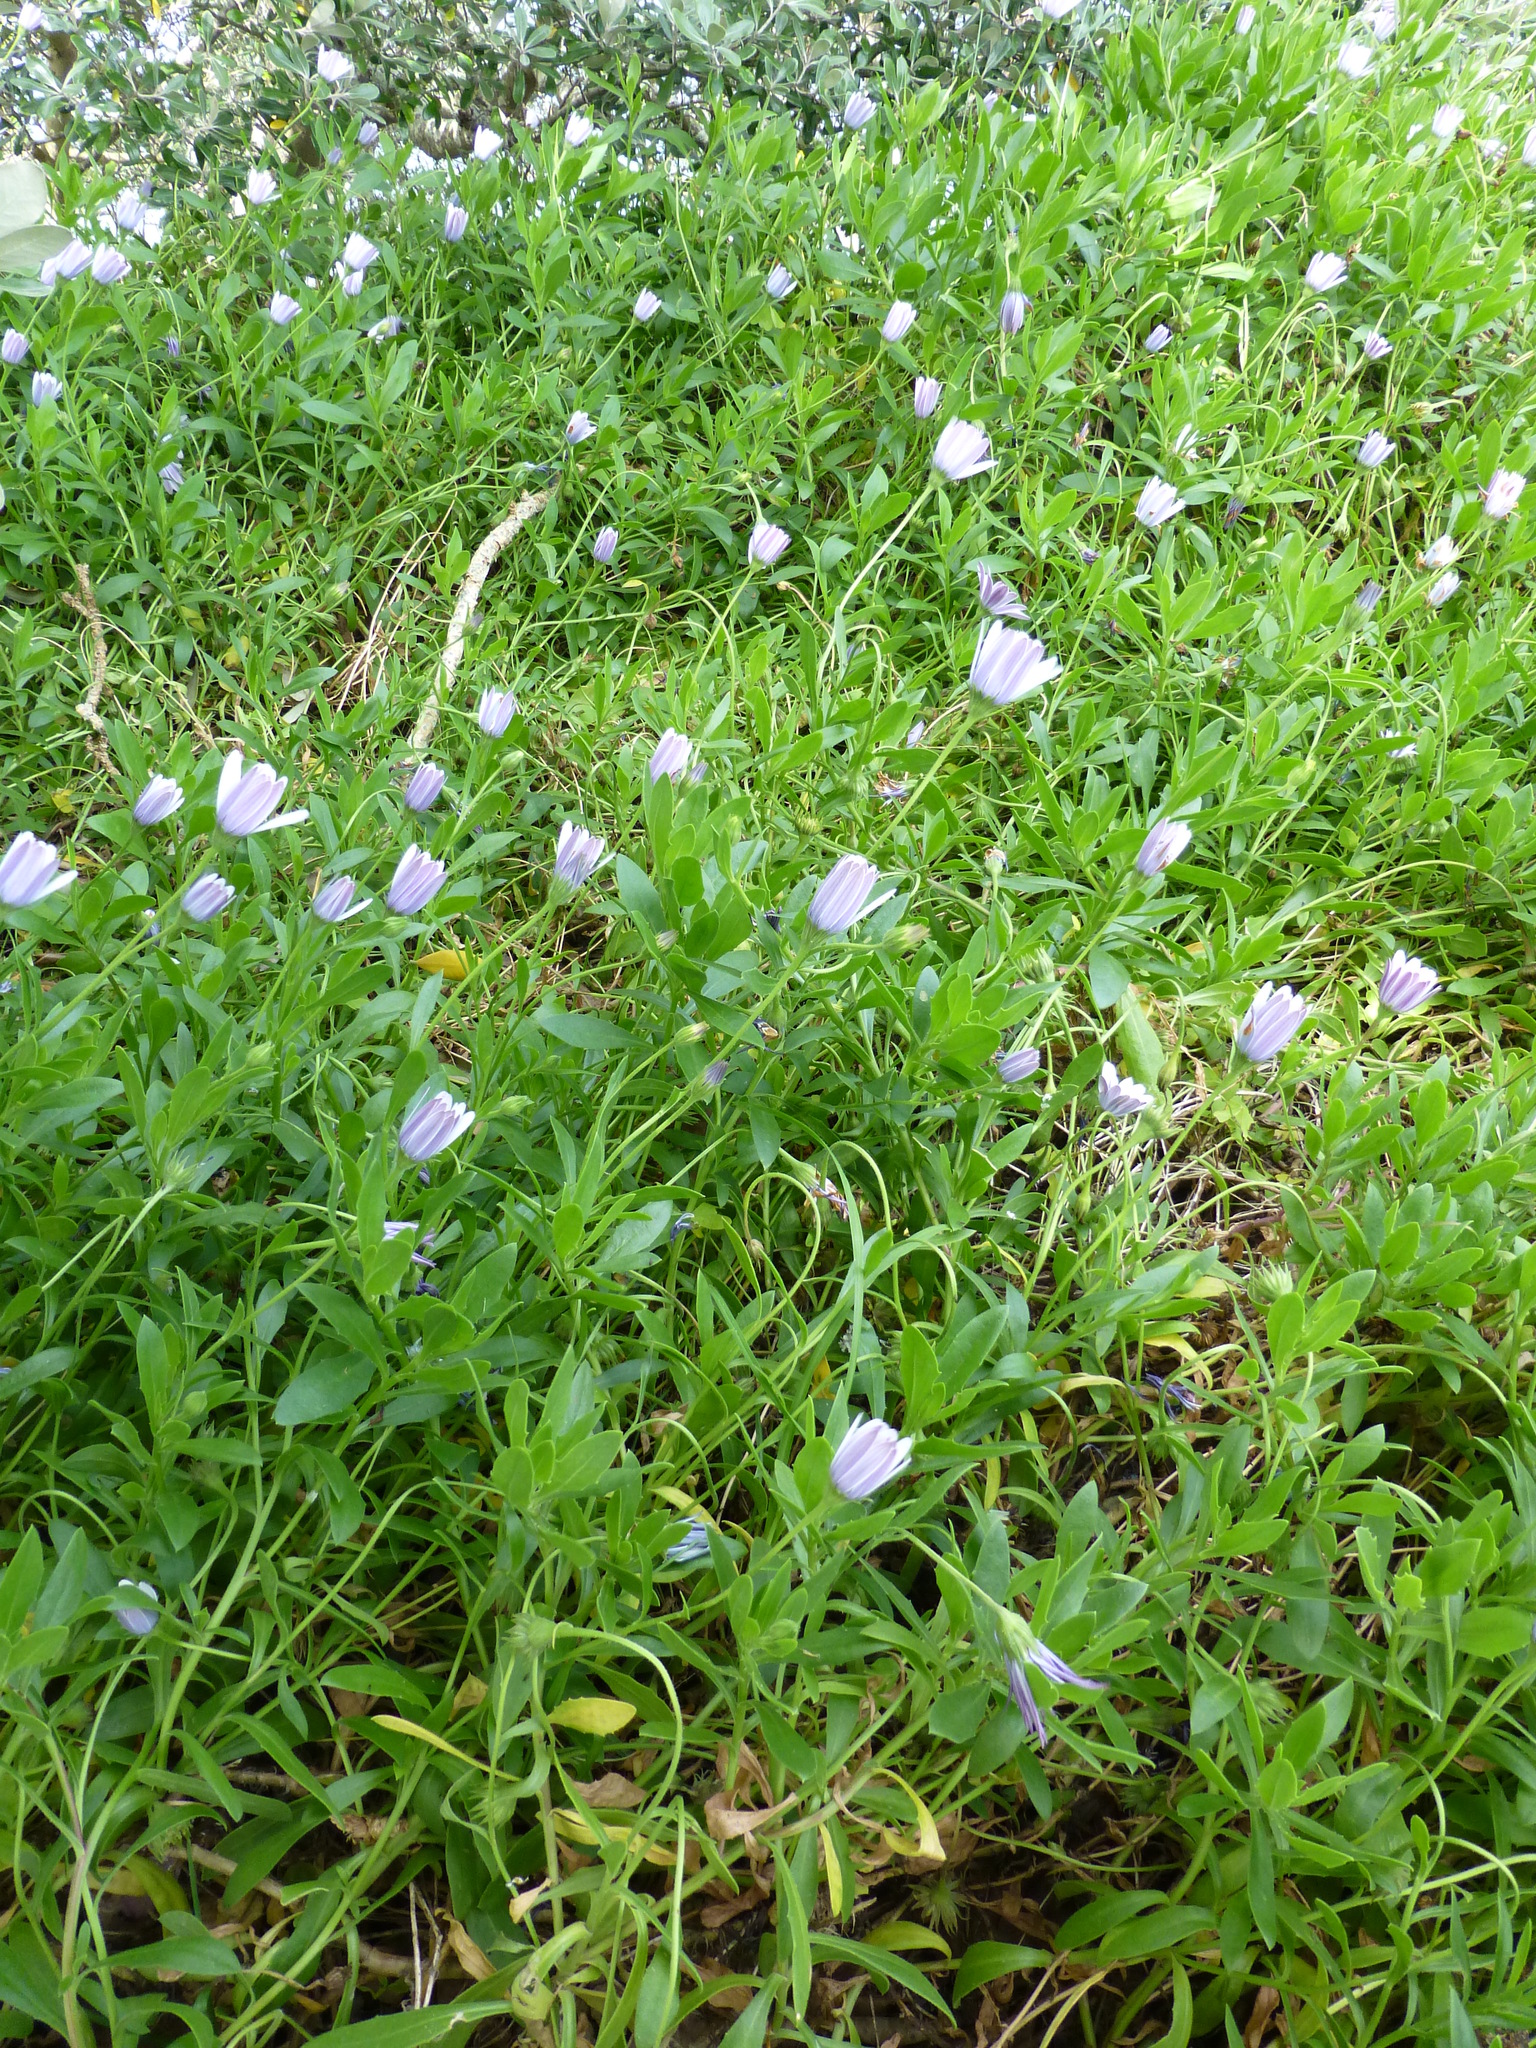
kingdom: Plantae
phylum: Tracheophyta
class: Magnoliopsida
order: Asterales
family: Asteraceae
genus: Dimorphotheca
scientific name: Dimorphotheca fruticosa
